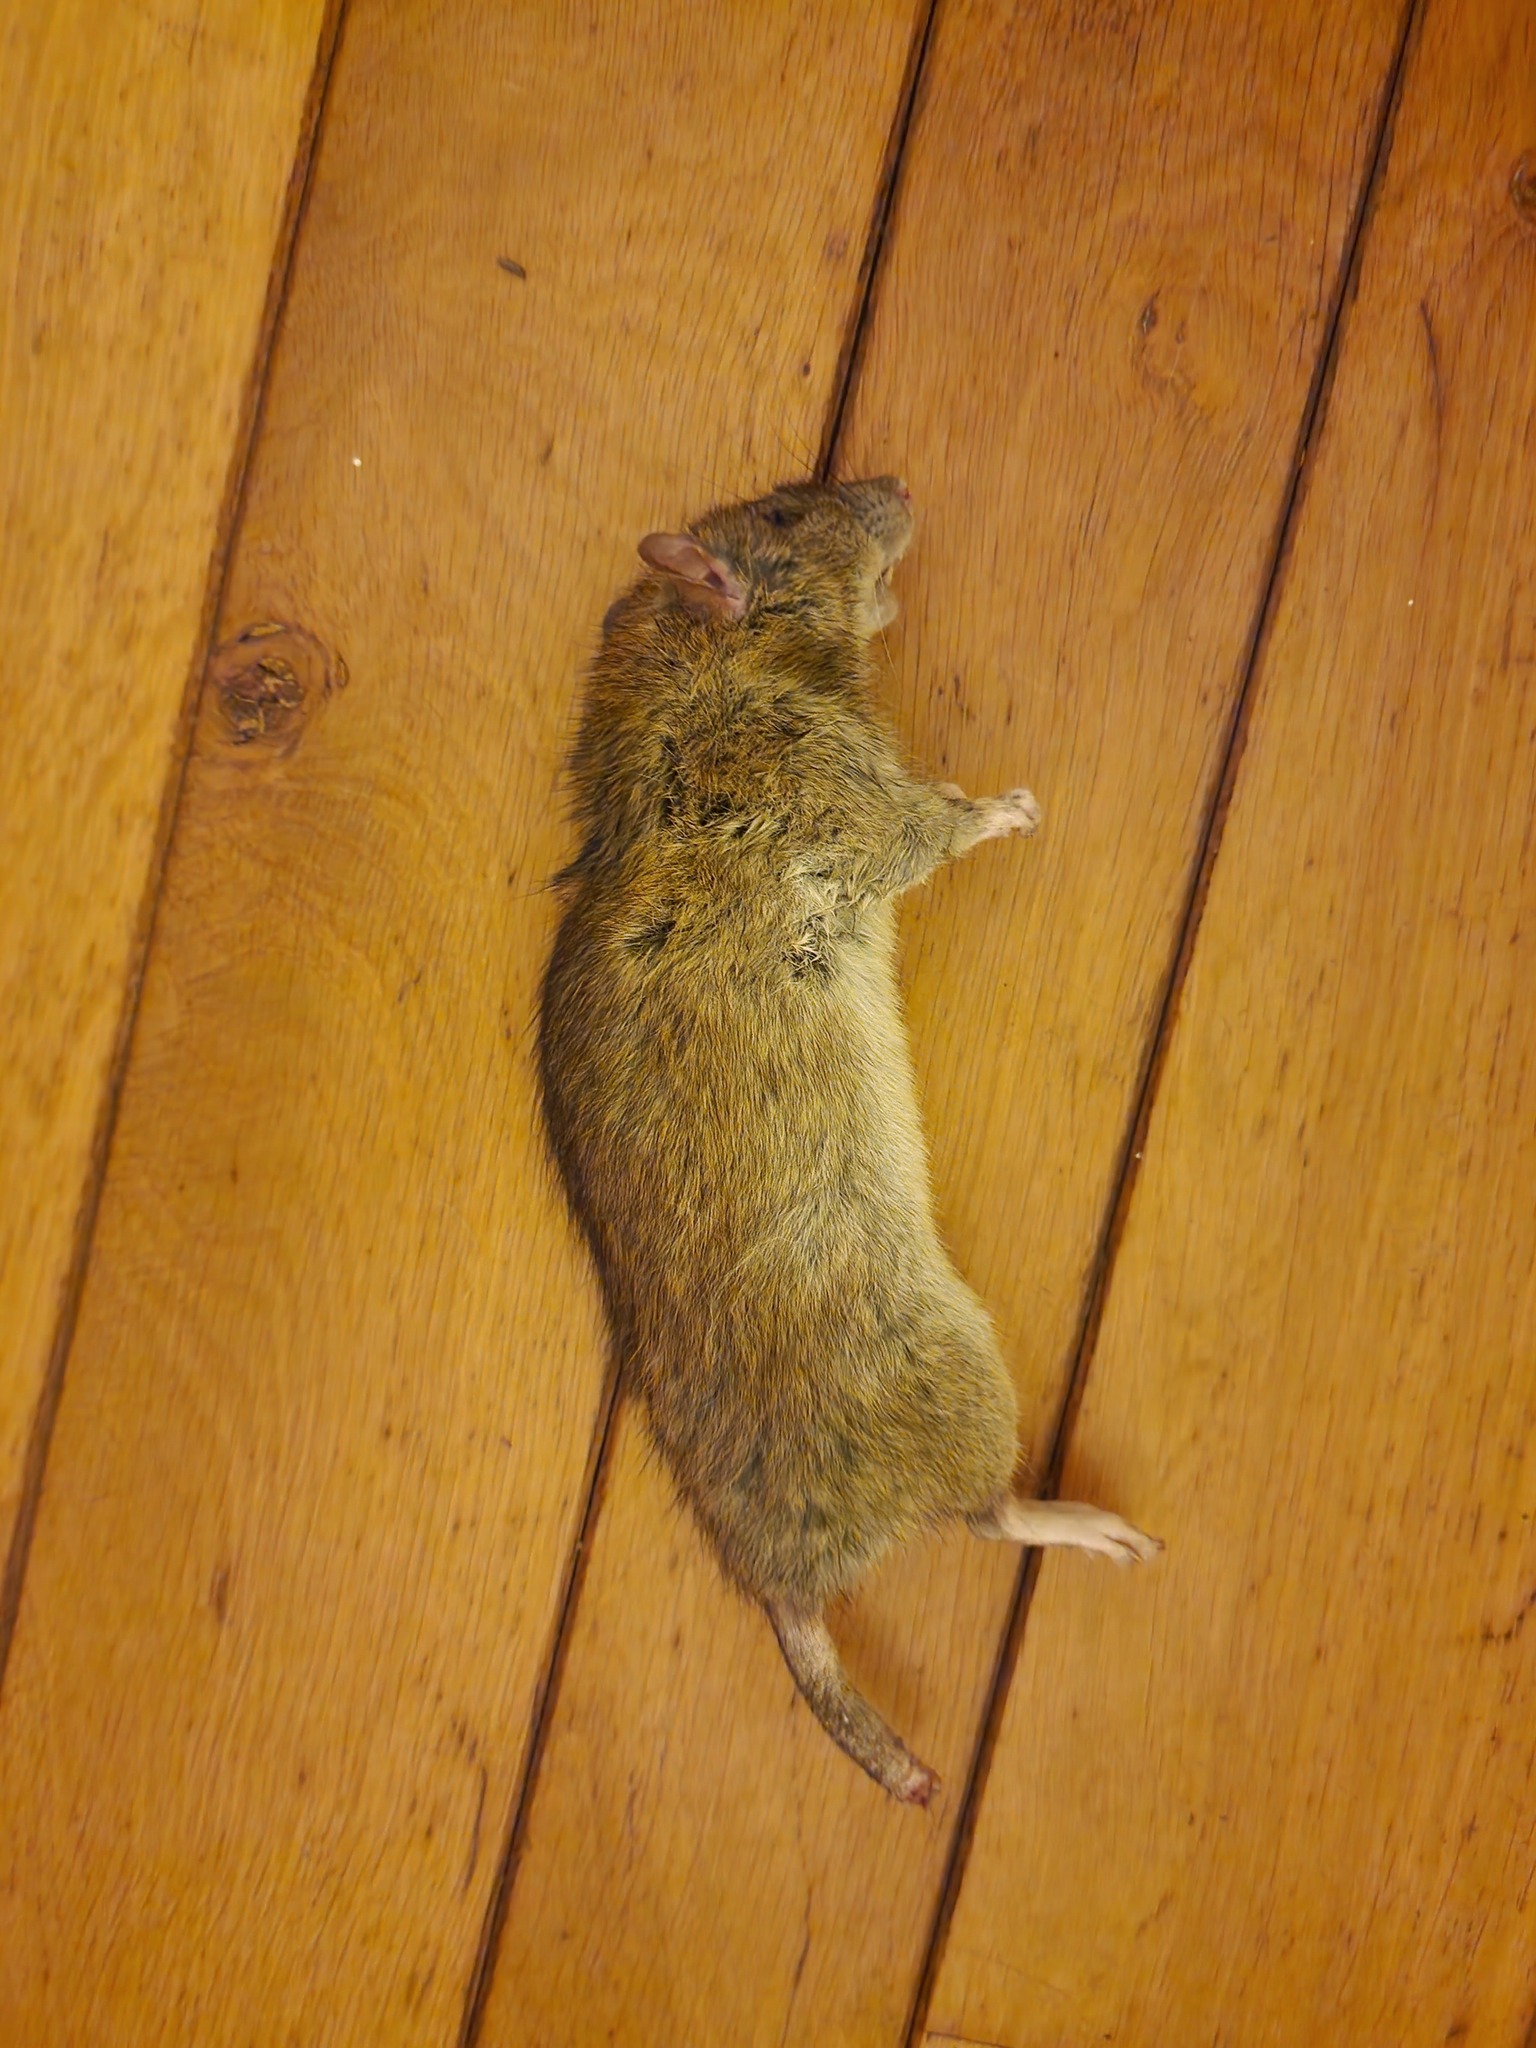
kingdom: Animalia
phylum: Chordata
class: Mammalia
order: Rodentia
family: Muridae
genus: Rattus
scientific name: Rattus norvegicus
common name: Brown rat
